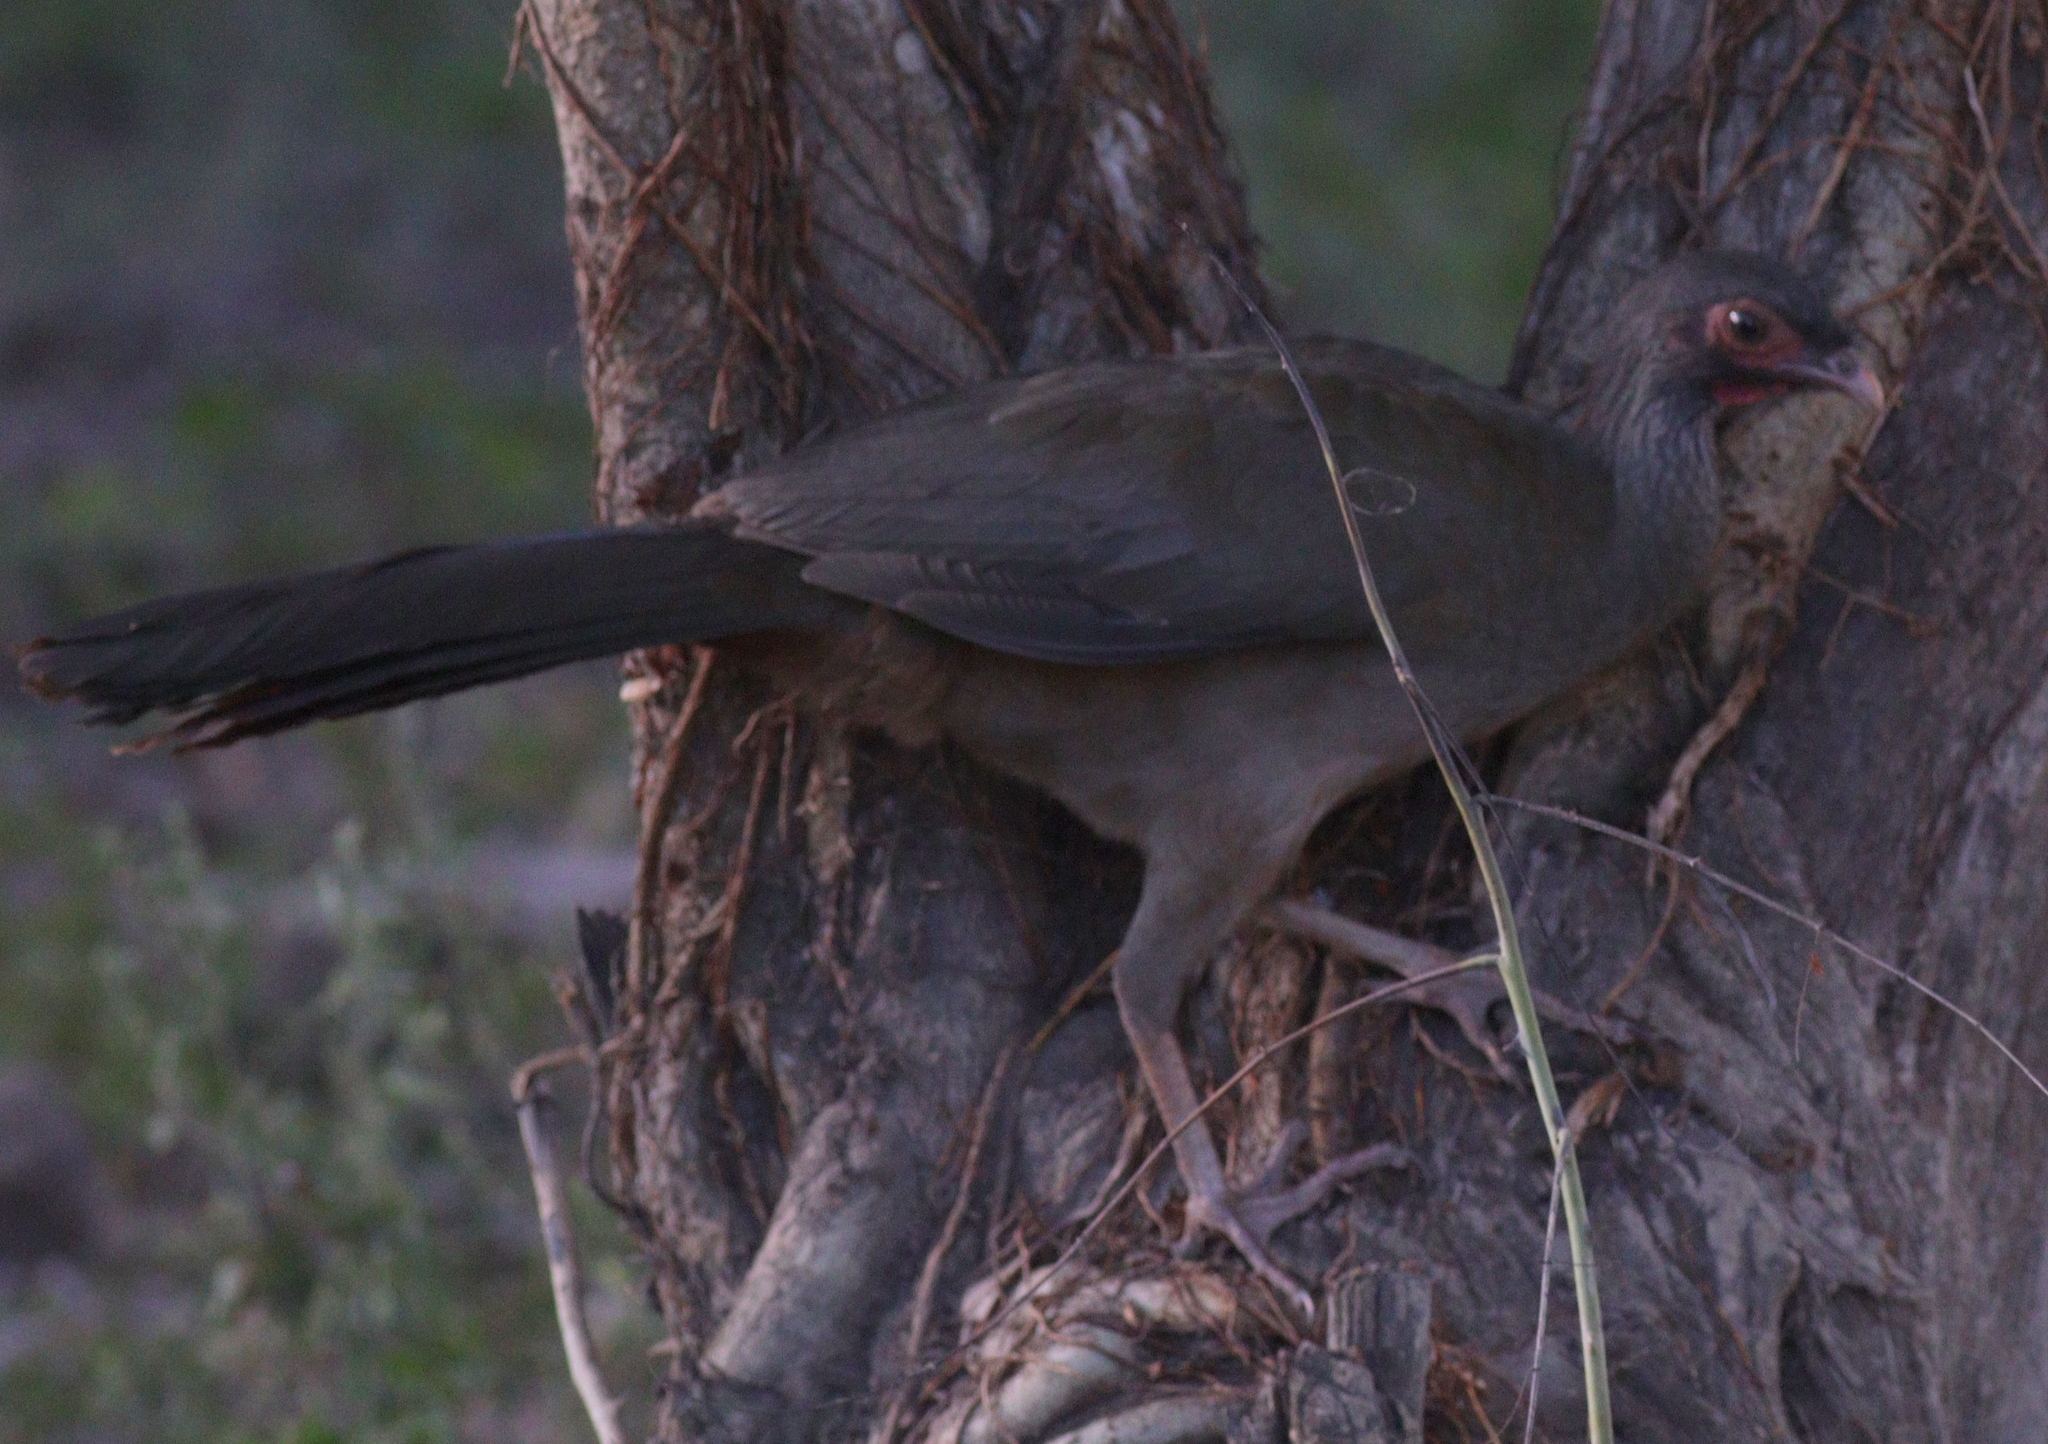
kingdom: Animalia
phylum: Chordata
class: Aves
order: Galliformes
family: Cracidae
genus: Ortalis
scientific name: Ortalis canicollis
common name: Chaco chachalaca
